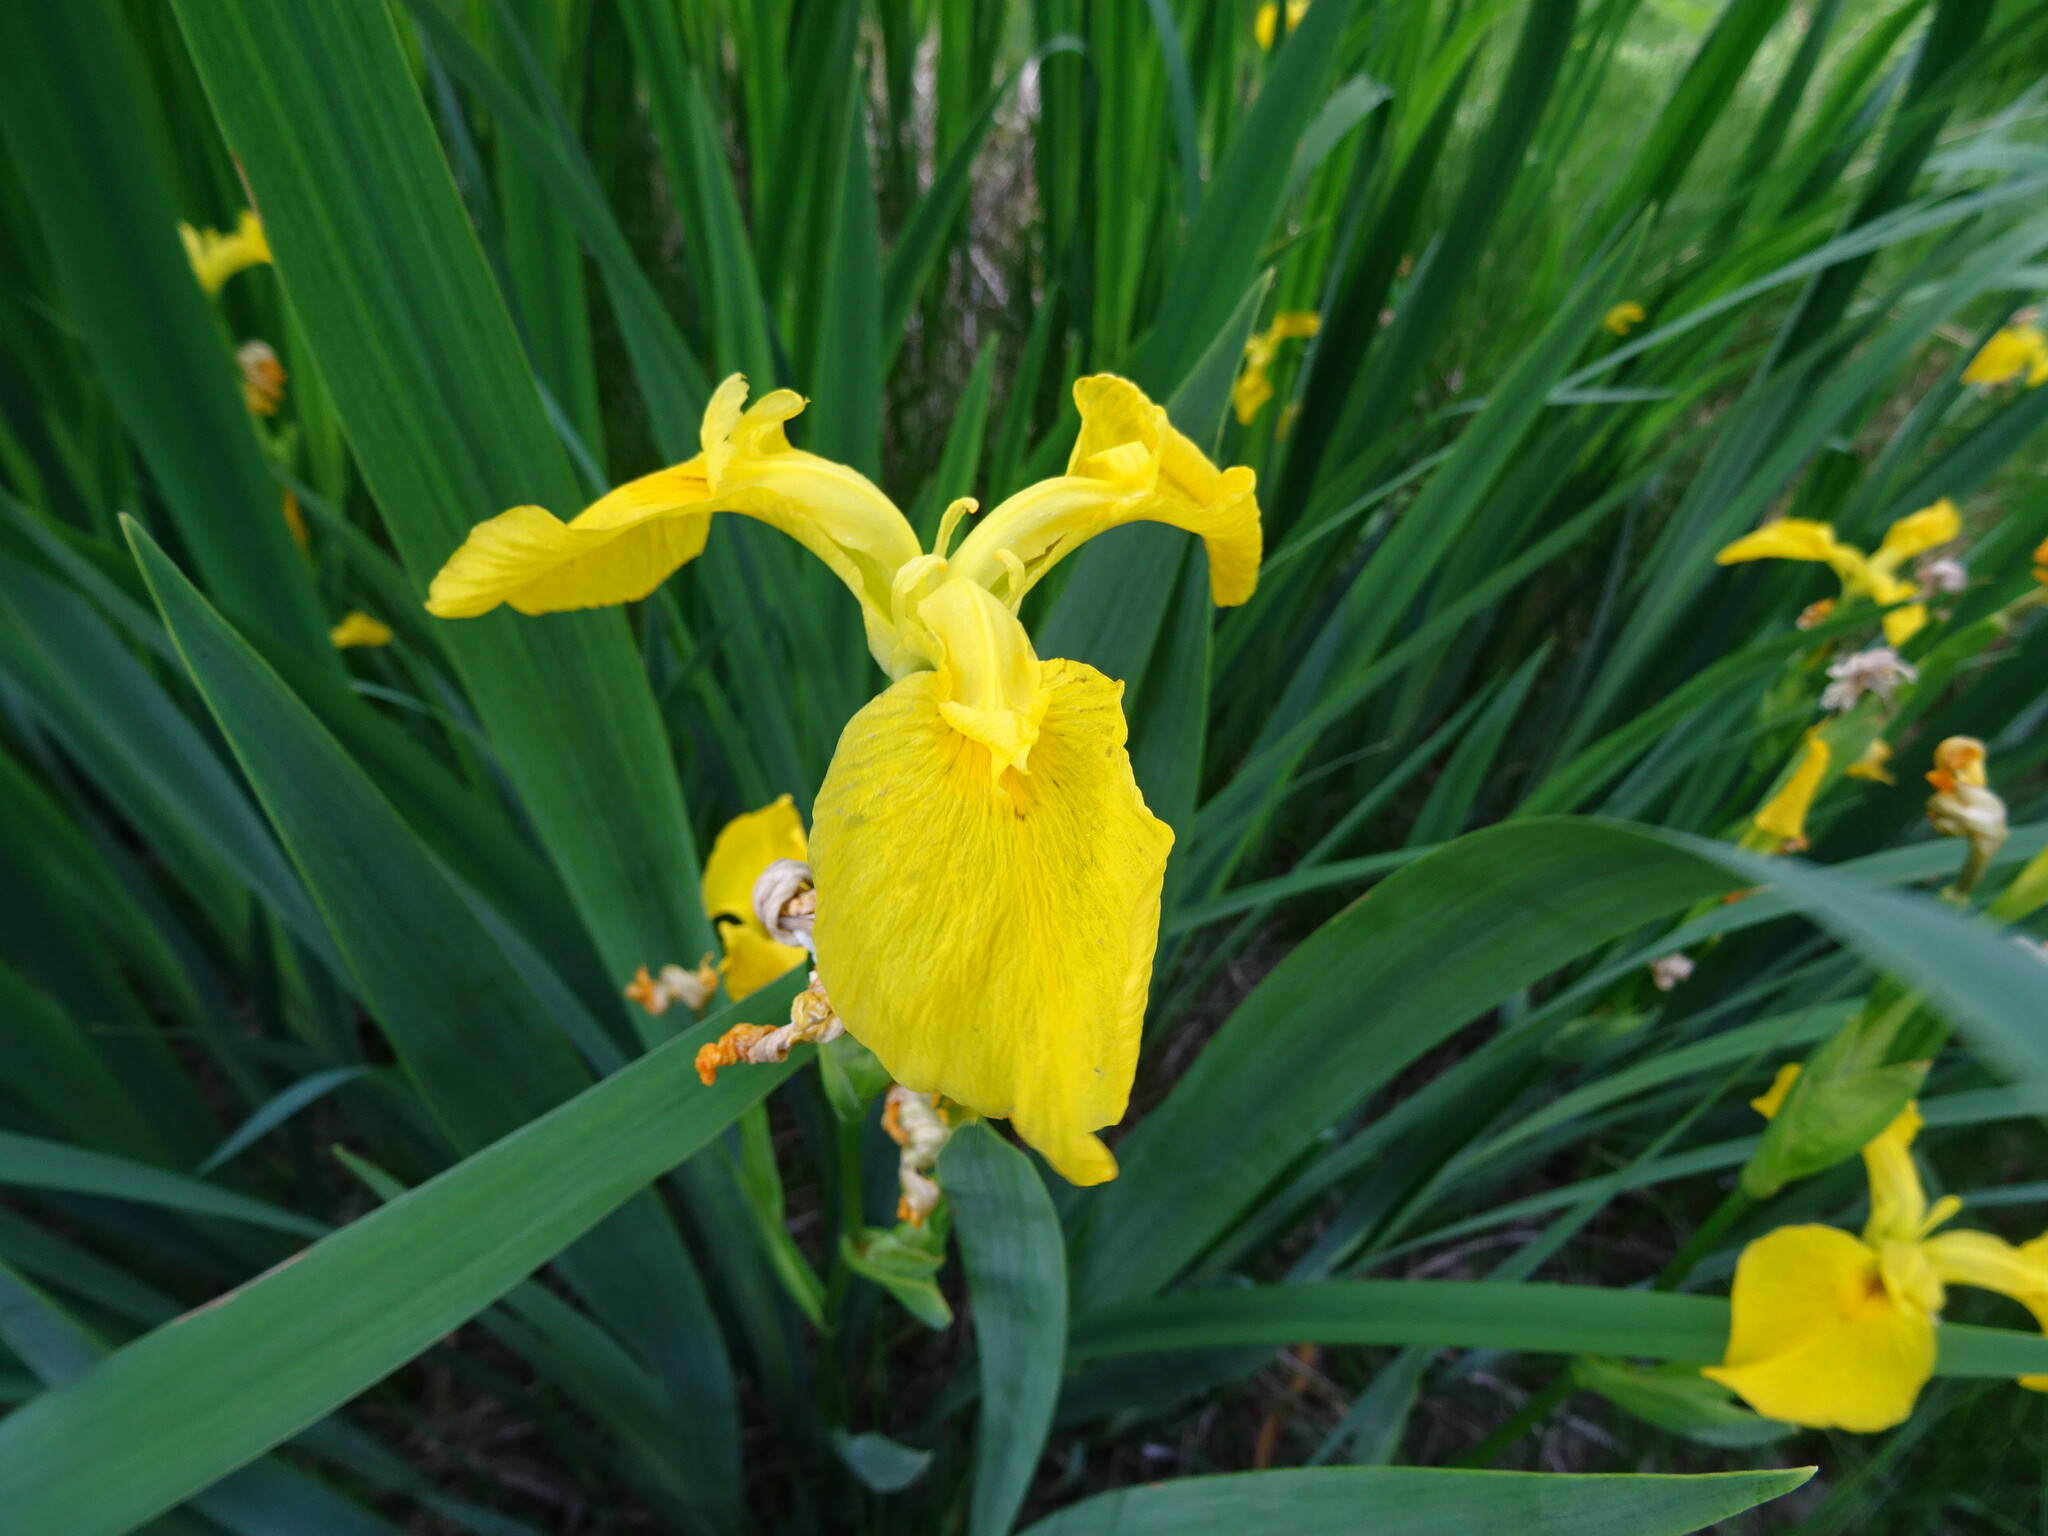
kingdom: Plantae
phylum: Tracheophyta
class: Liliopsida
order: Asparagales
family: Iridaceae
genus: Iris
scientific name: Iris pseudacorus
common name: Yellow flag
